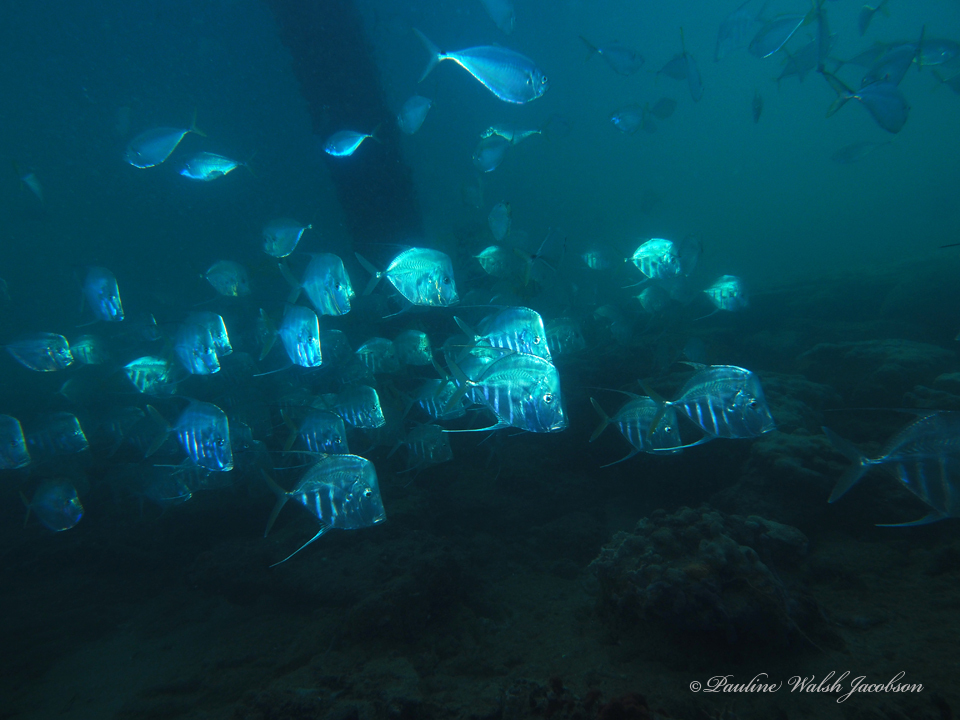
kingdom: Animalia
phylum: Chordata
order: Perciformes
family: Carangidae
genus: Chloroscombrus
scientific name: Chloroscombrus chrysurus
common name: Bumper
